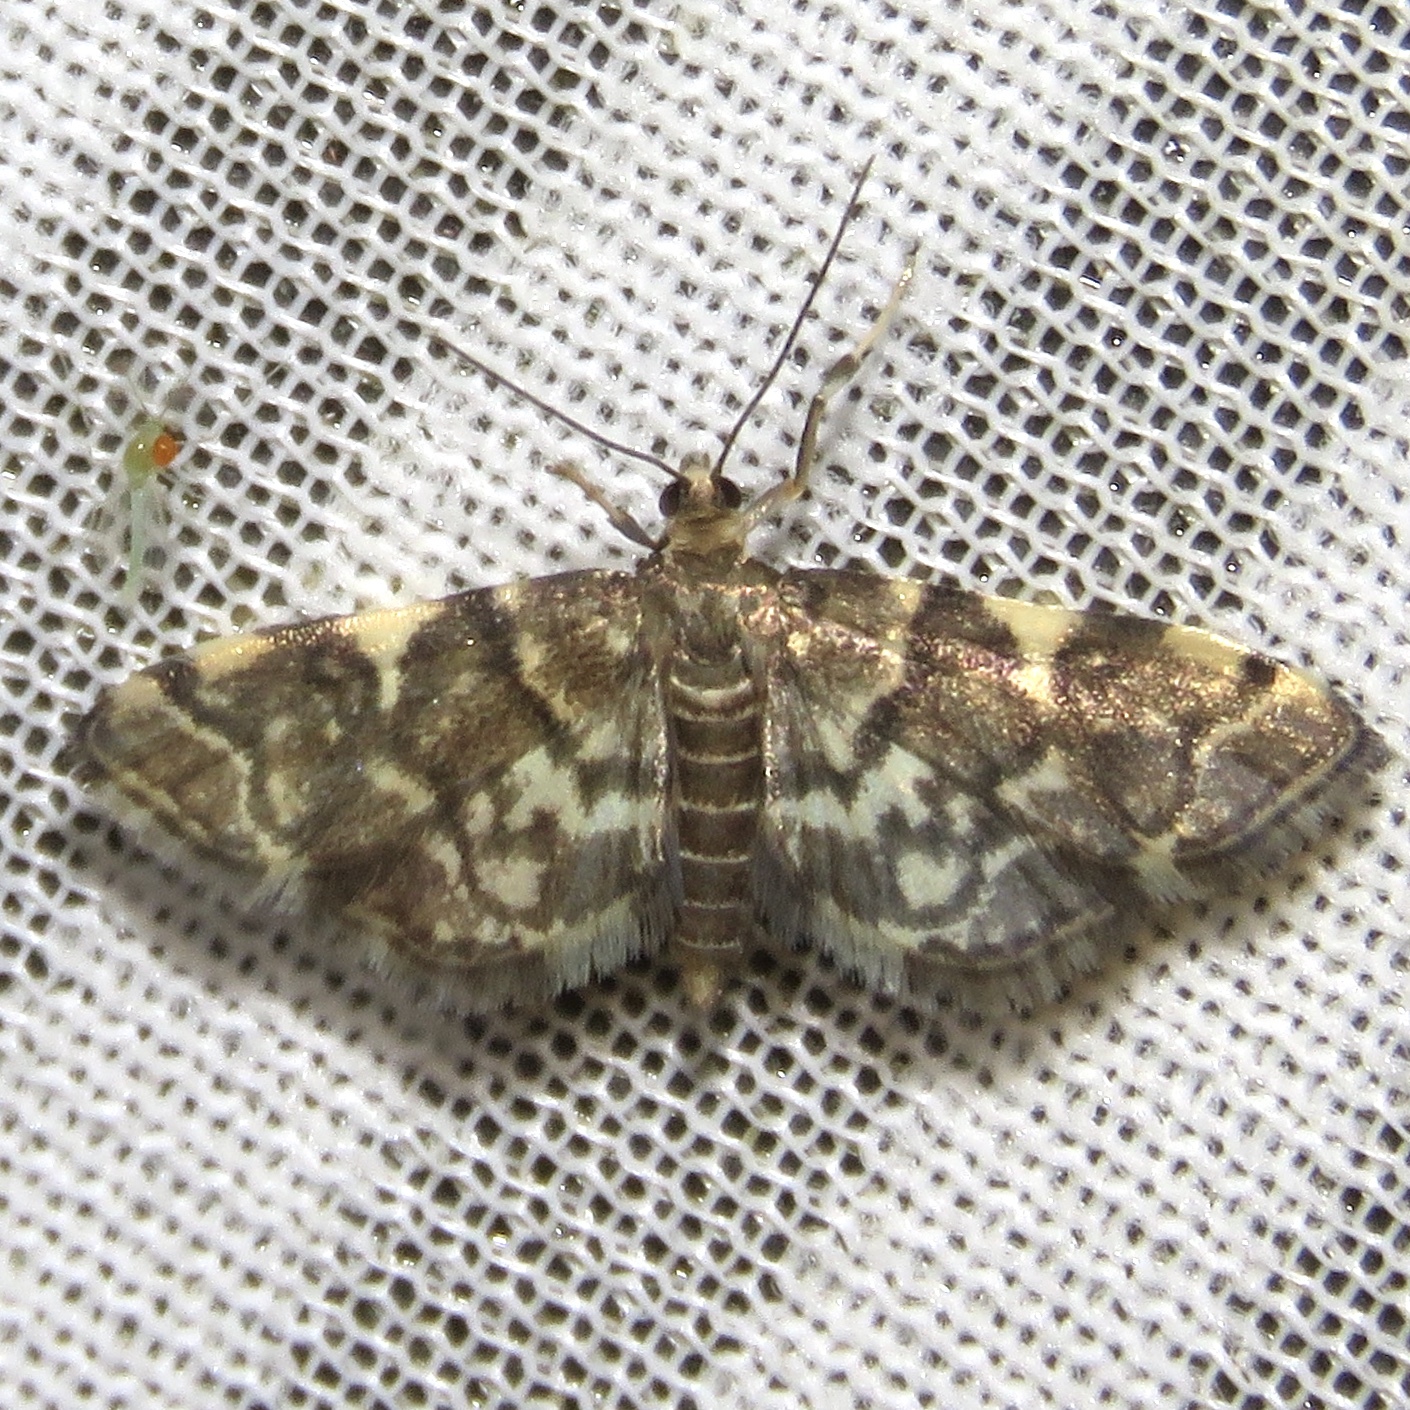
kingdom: Animalia
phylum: Arthropoda
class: Insecta
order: Lepidoptera
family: Crambidae
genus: Anageshna
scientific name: Anageshna primordialis
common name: Yellow-spotted webworm moth
